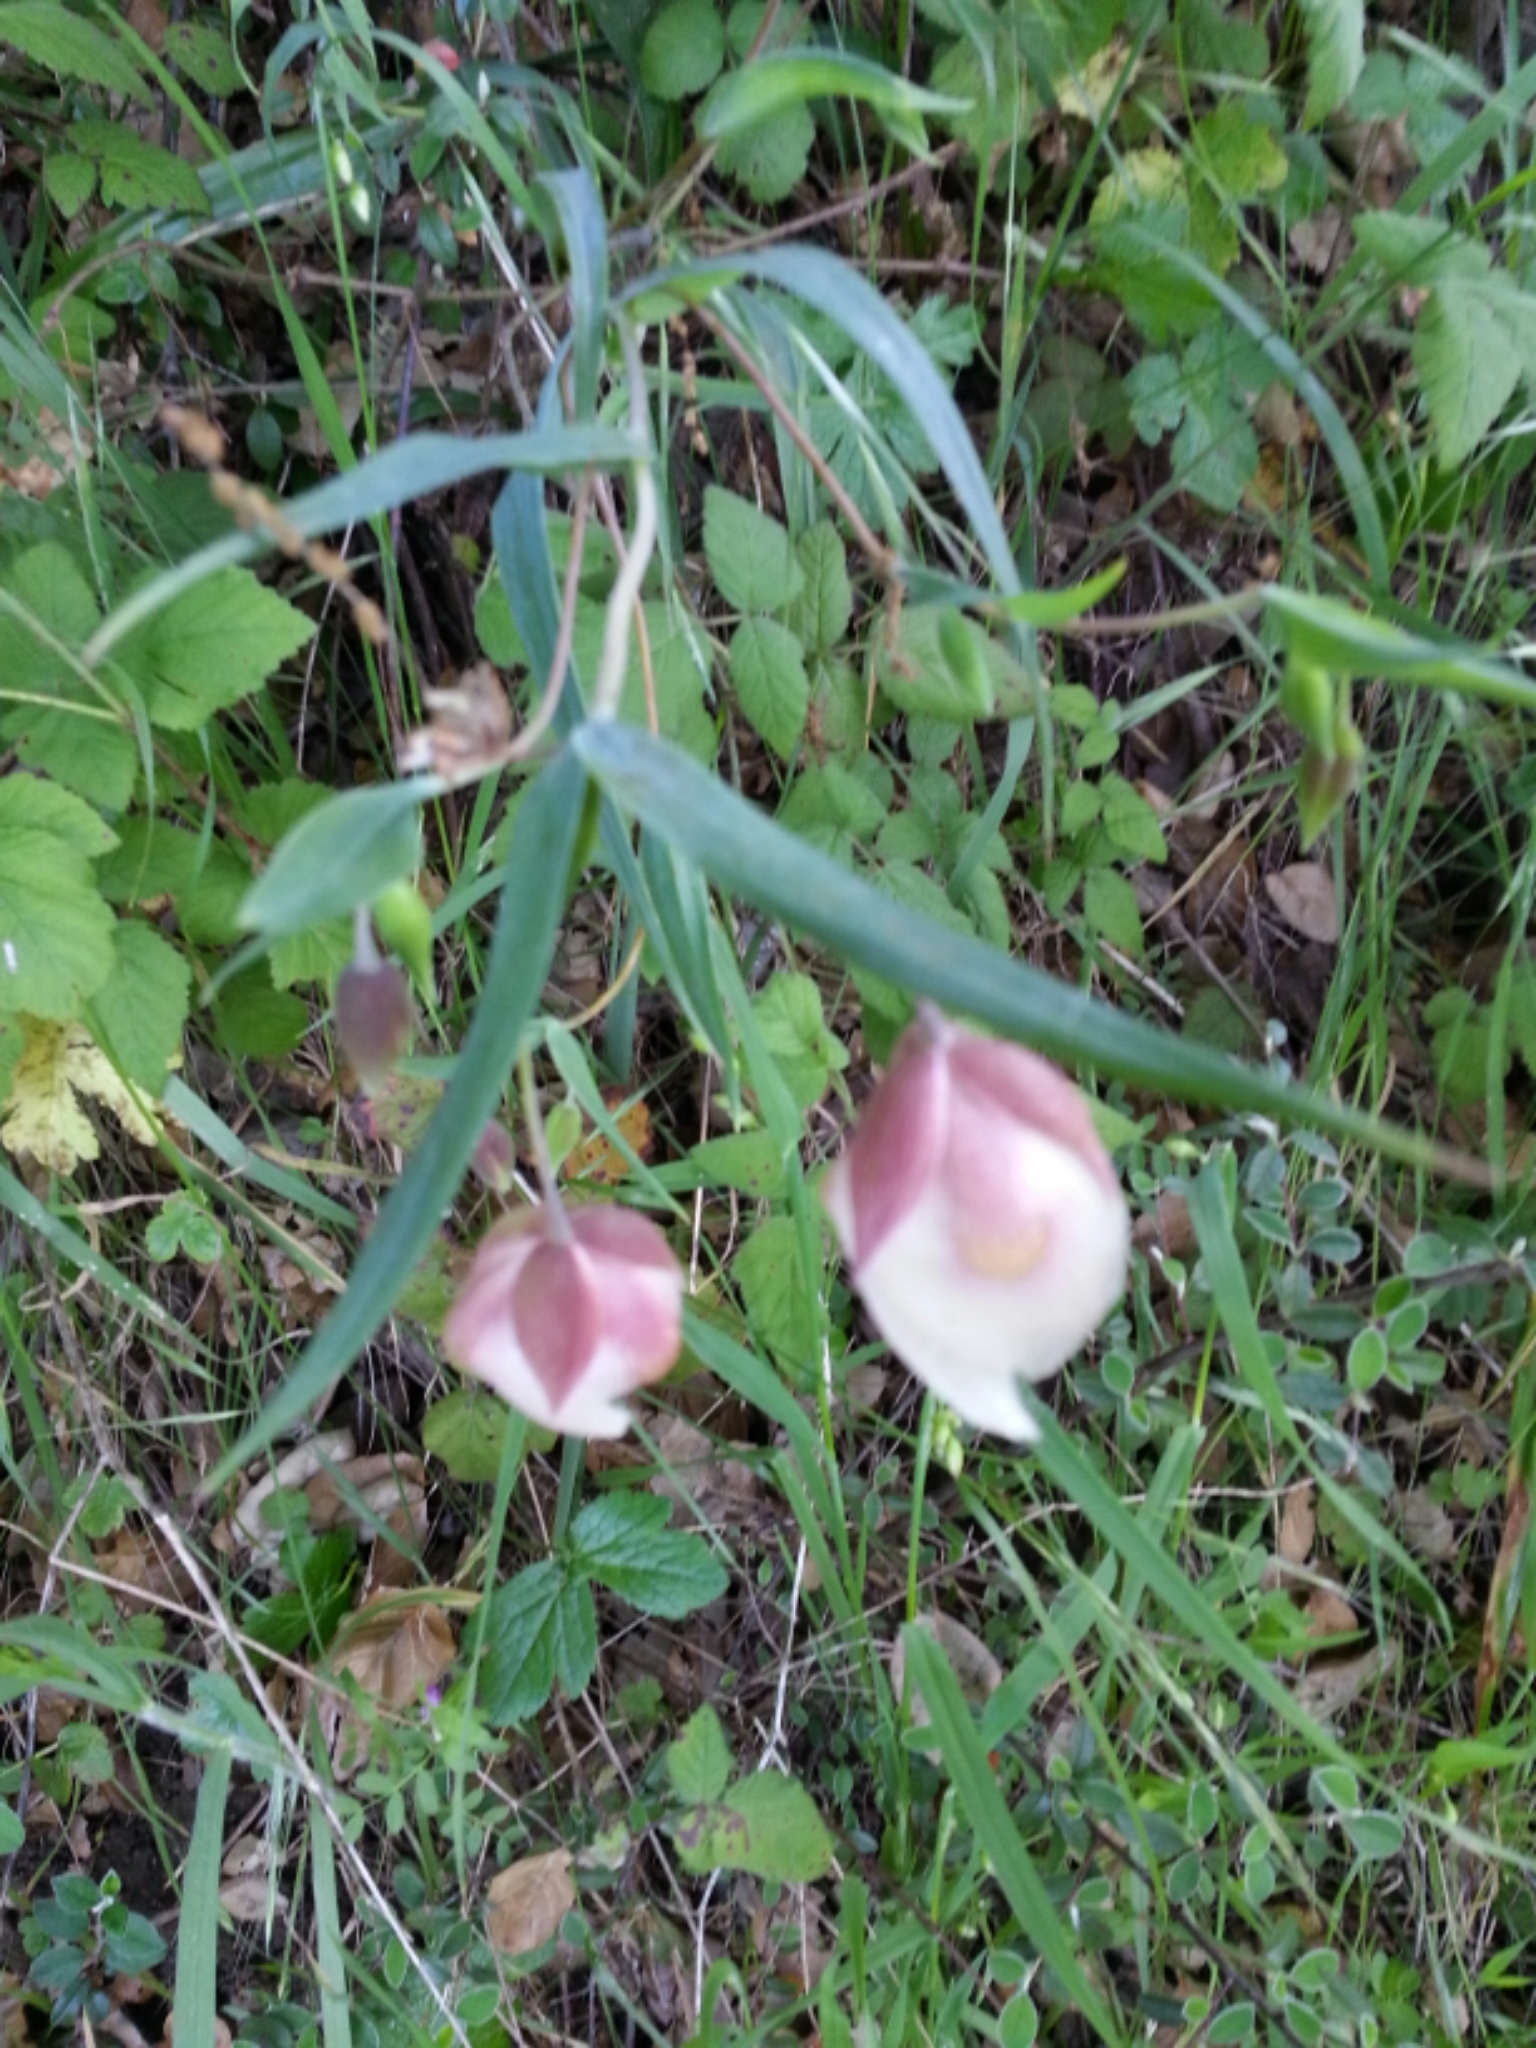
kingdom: Plantae
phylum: Tracheophyta
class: Liliopsida
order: Liliales
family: Liliaceae
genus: Calochortus
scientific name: Calochortus albus
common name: Fairy-lantern
